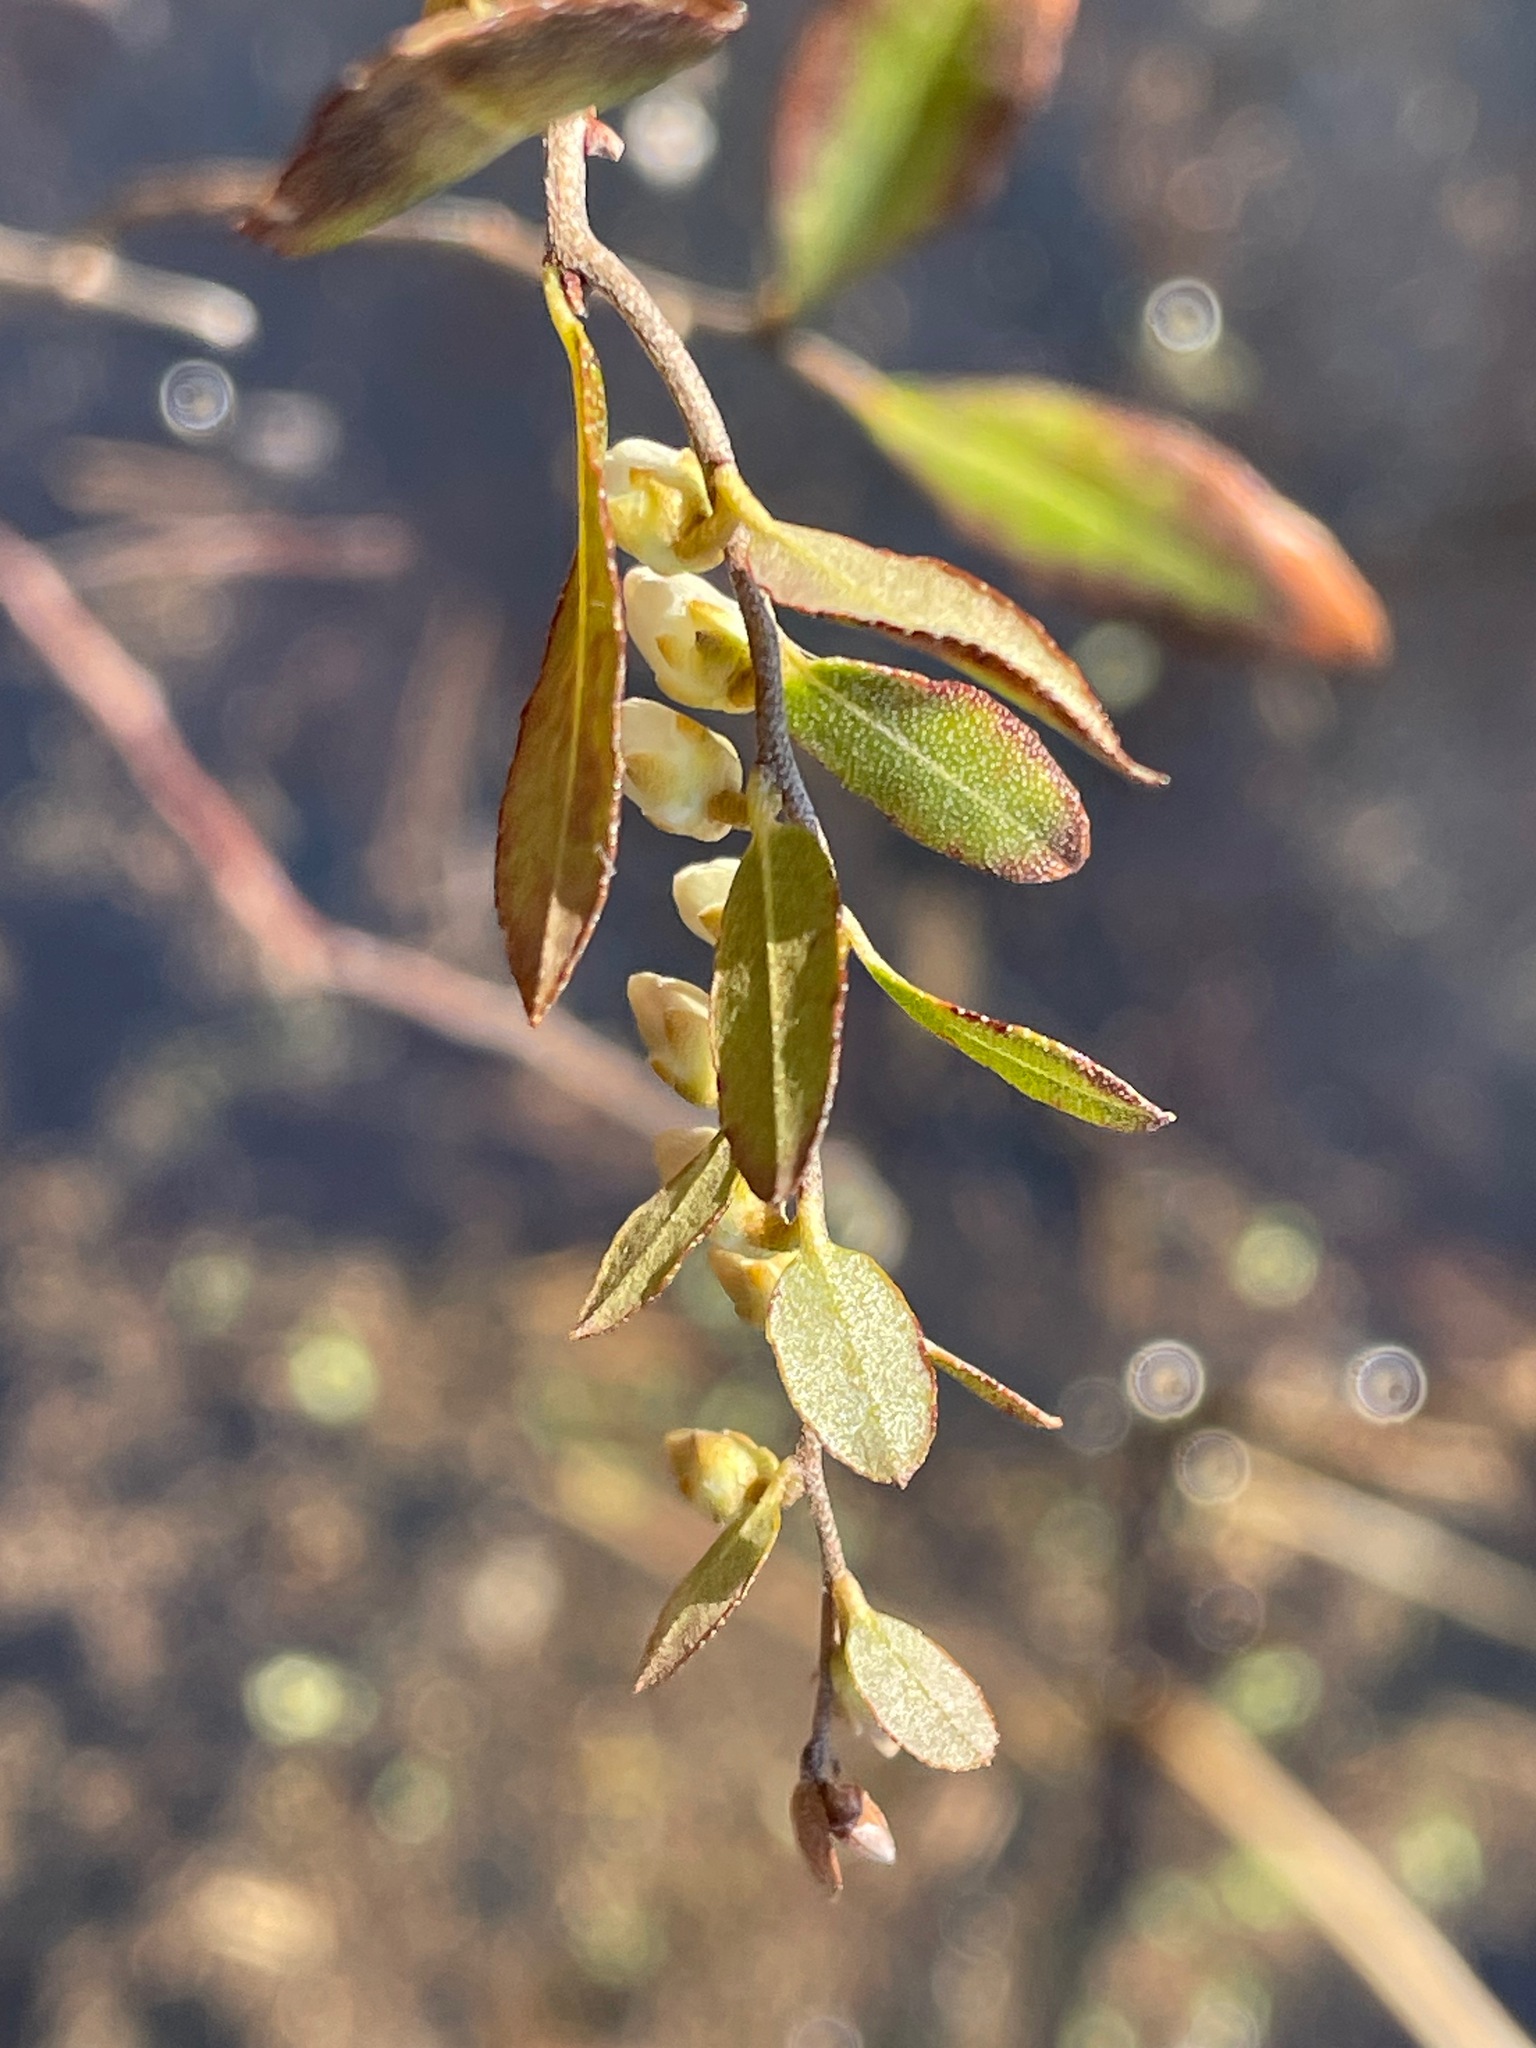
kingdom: Plantae
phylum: Tracheophyta
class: Magnoliopsida
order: Ericales
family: Ericaceae
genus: Chamaedaphne
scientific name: Chamaedaphne calyculata
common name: Leatherleaf
